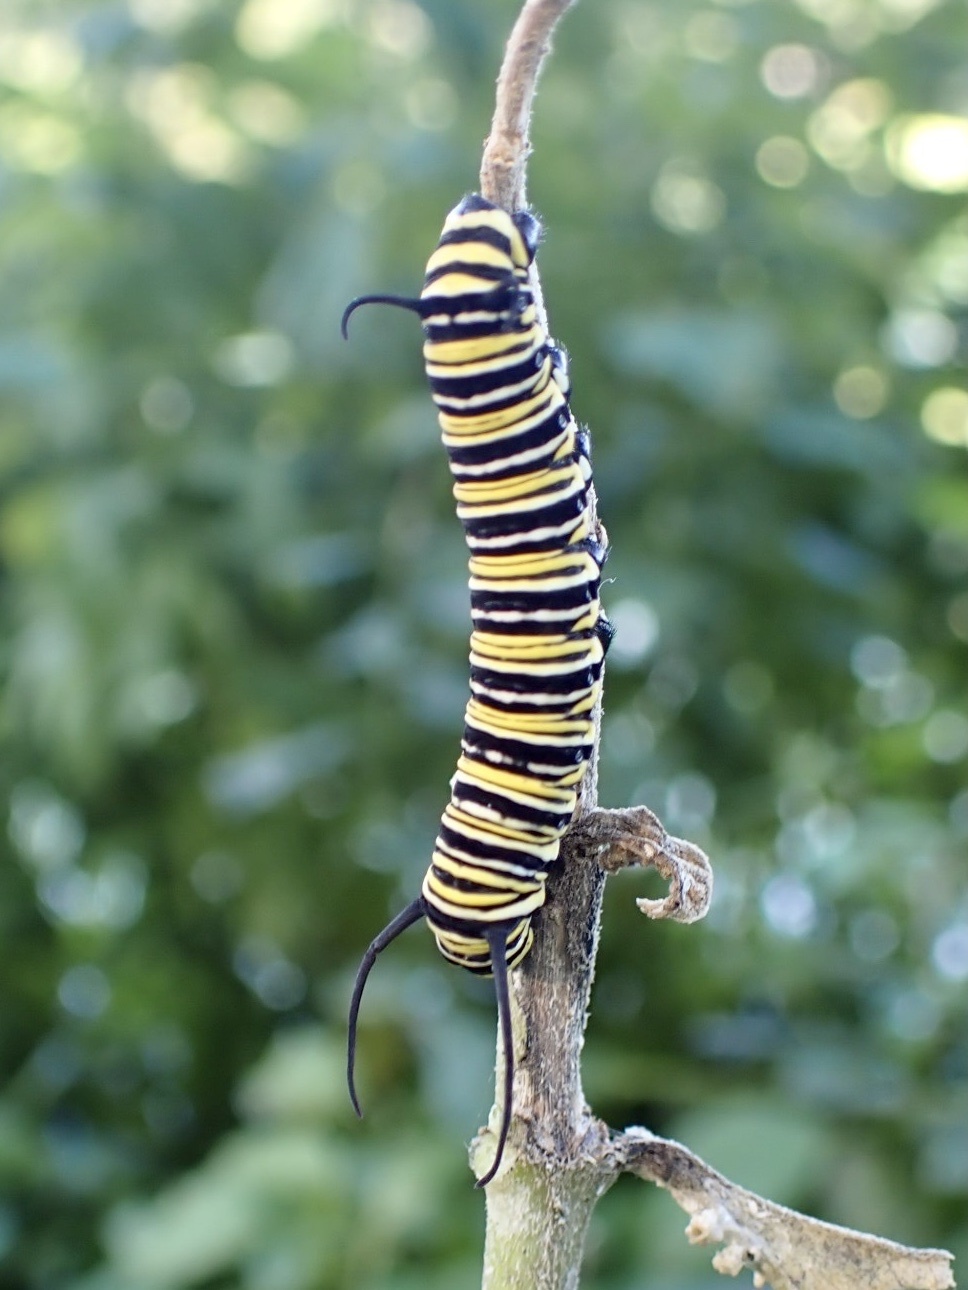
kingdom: Animalia
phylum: Arthropoda
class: Insecta
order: Lepidoptera
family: Nymphalidae
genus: Danaus
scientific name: Danaus plexippus
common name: Monarch
